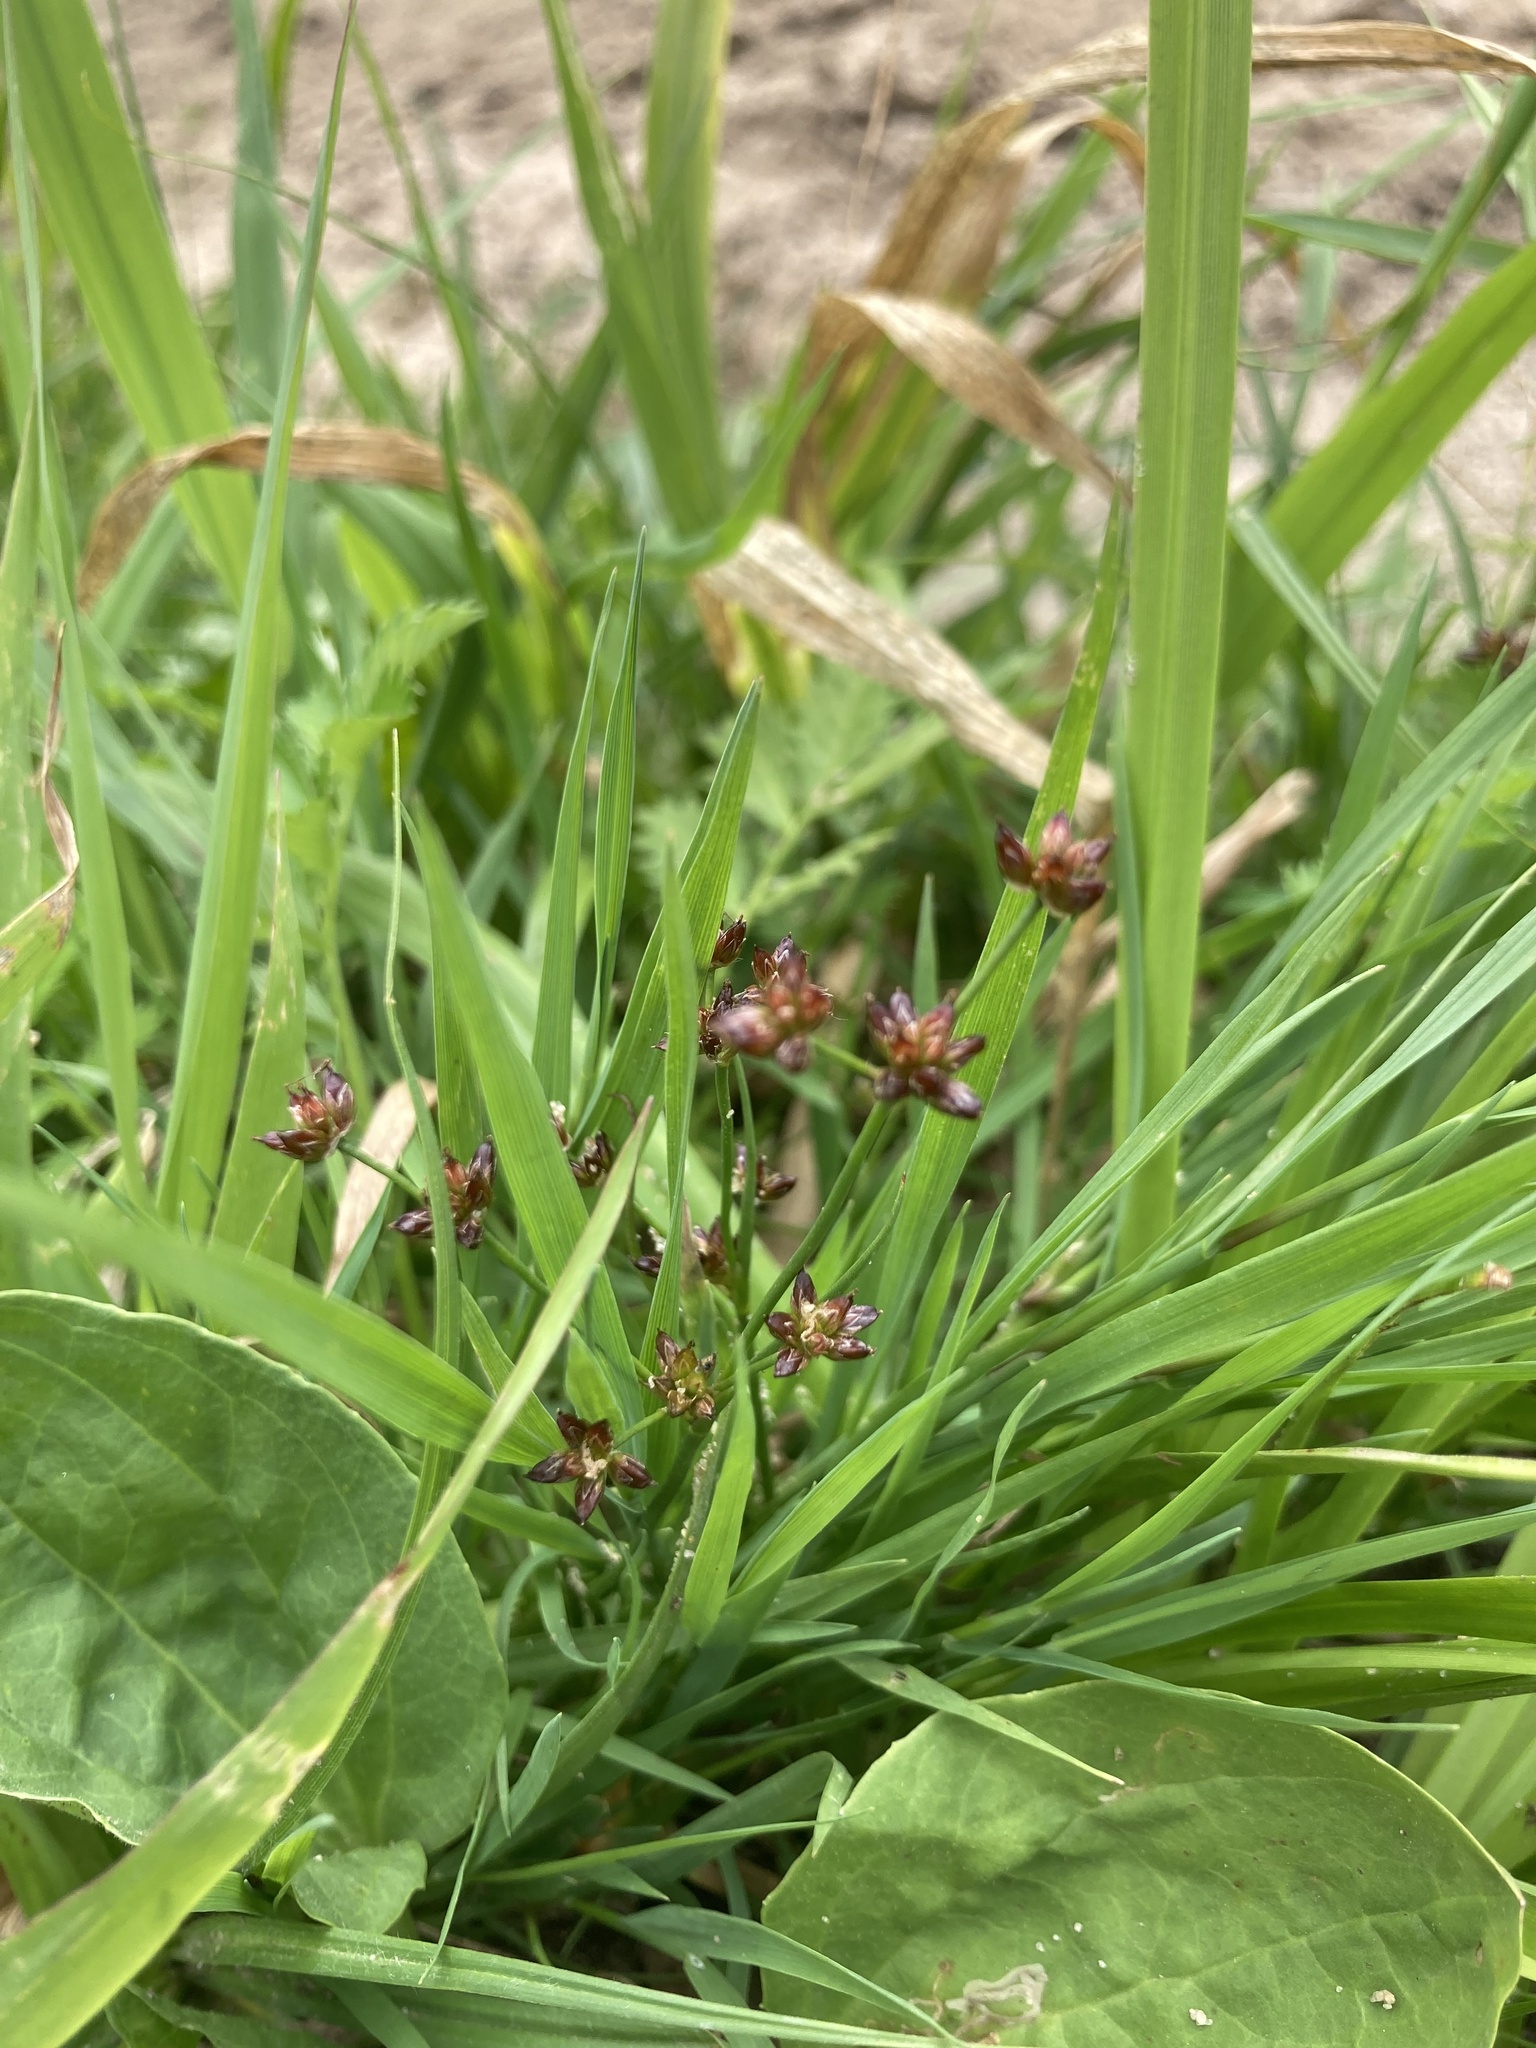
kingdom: Plantae
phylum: Tracheophyta
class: Liliopsida
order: Poales
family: Juncaceae
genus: Juncus
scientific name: Juncus articulatus
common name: Jointed rush
